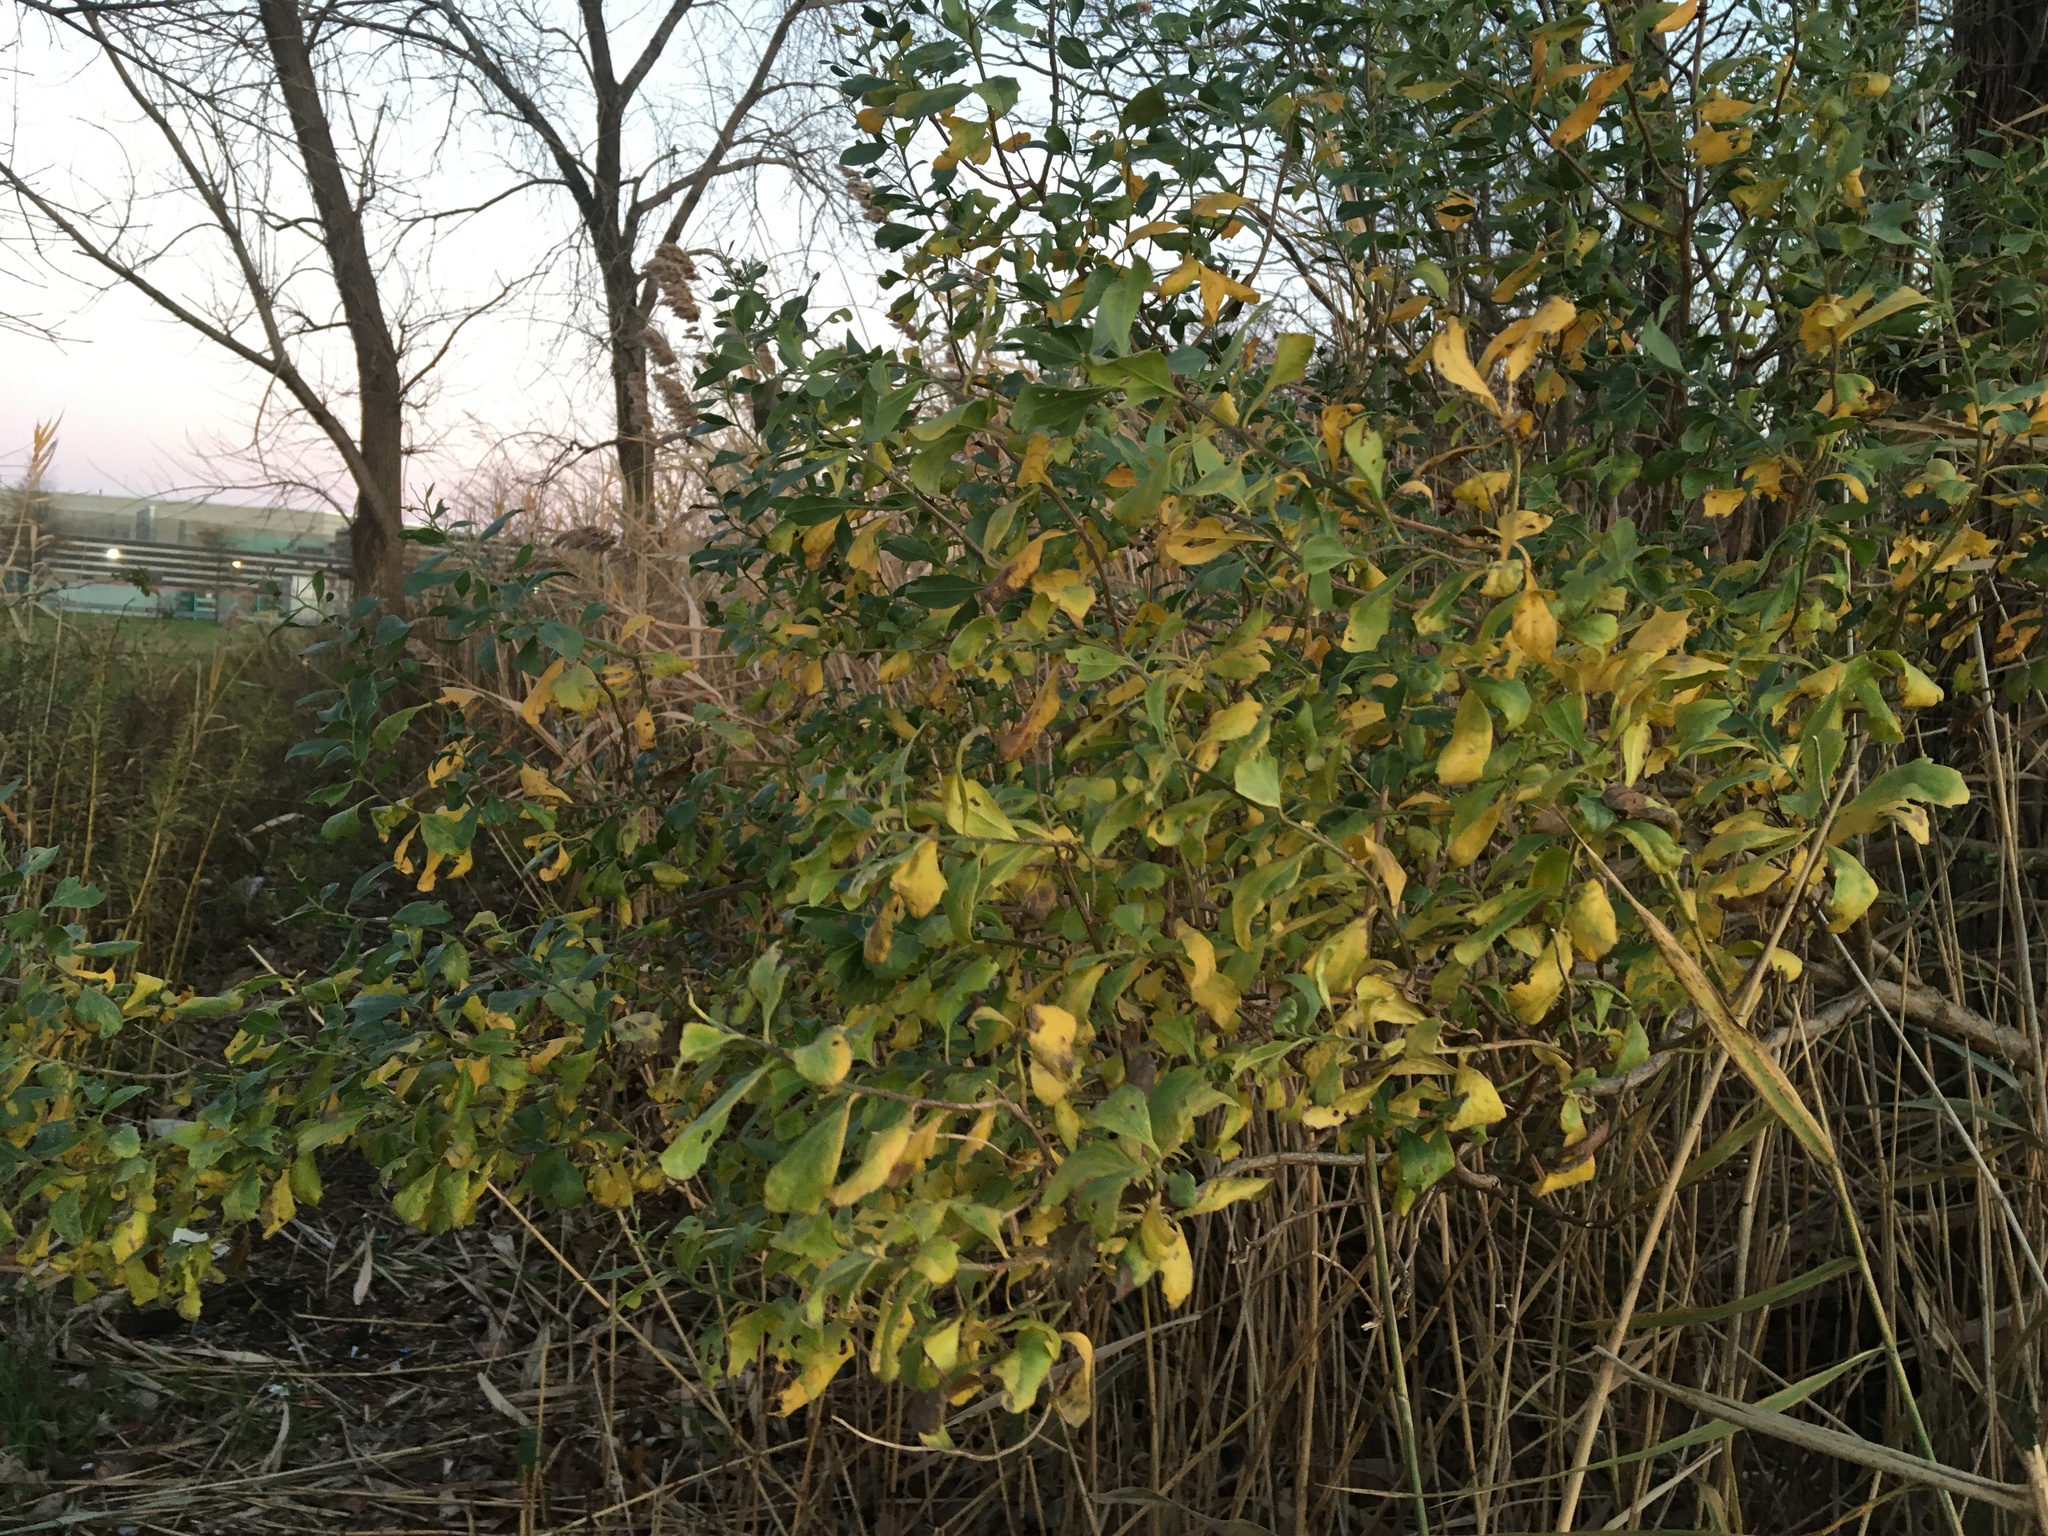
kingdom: Plantae
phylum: Tracheophyta
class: Magnoliopsida
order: Asterales
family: Asteraceae
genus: Baccharis
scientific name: Baccharis halimifolia
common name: Eastern baccharis
